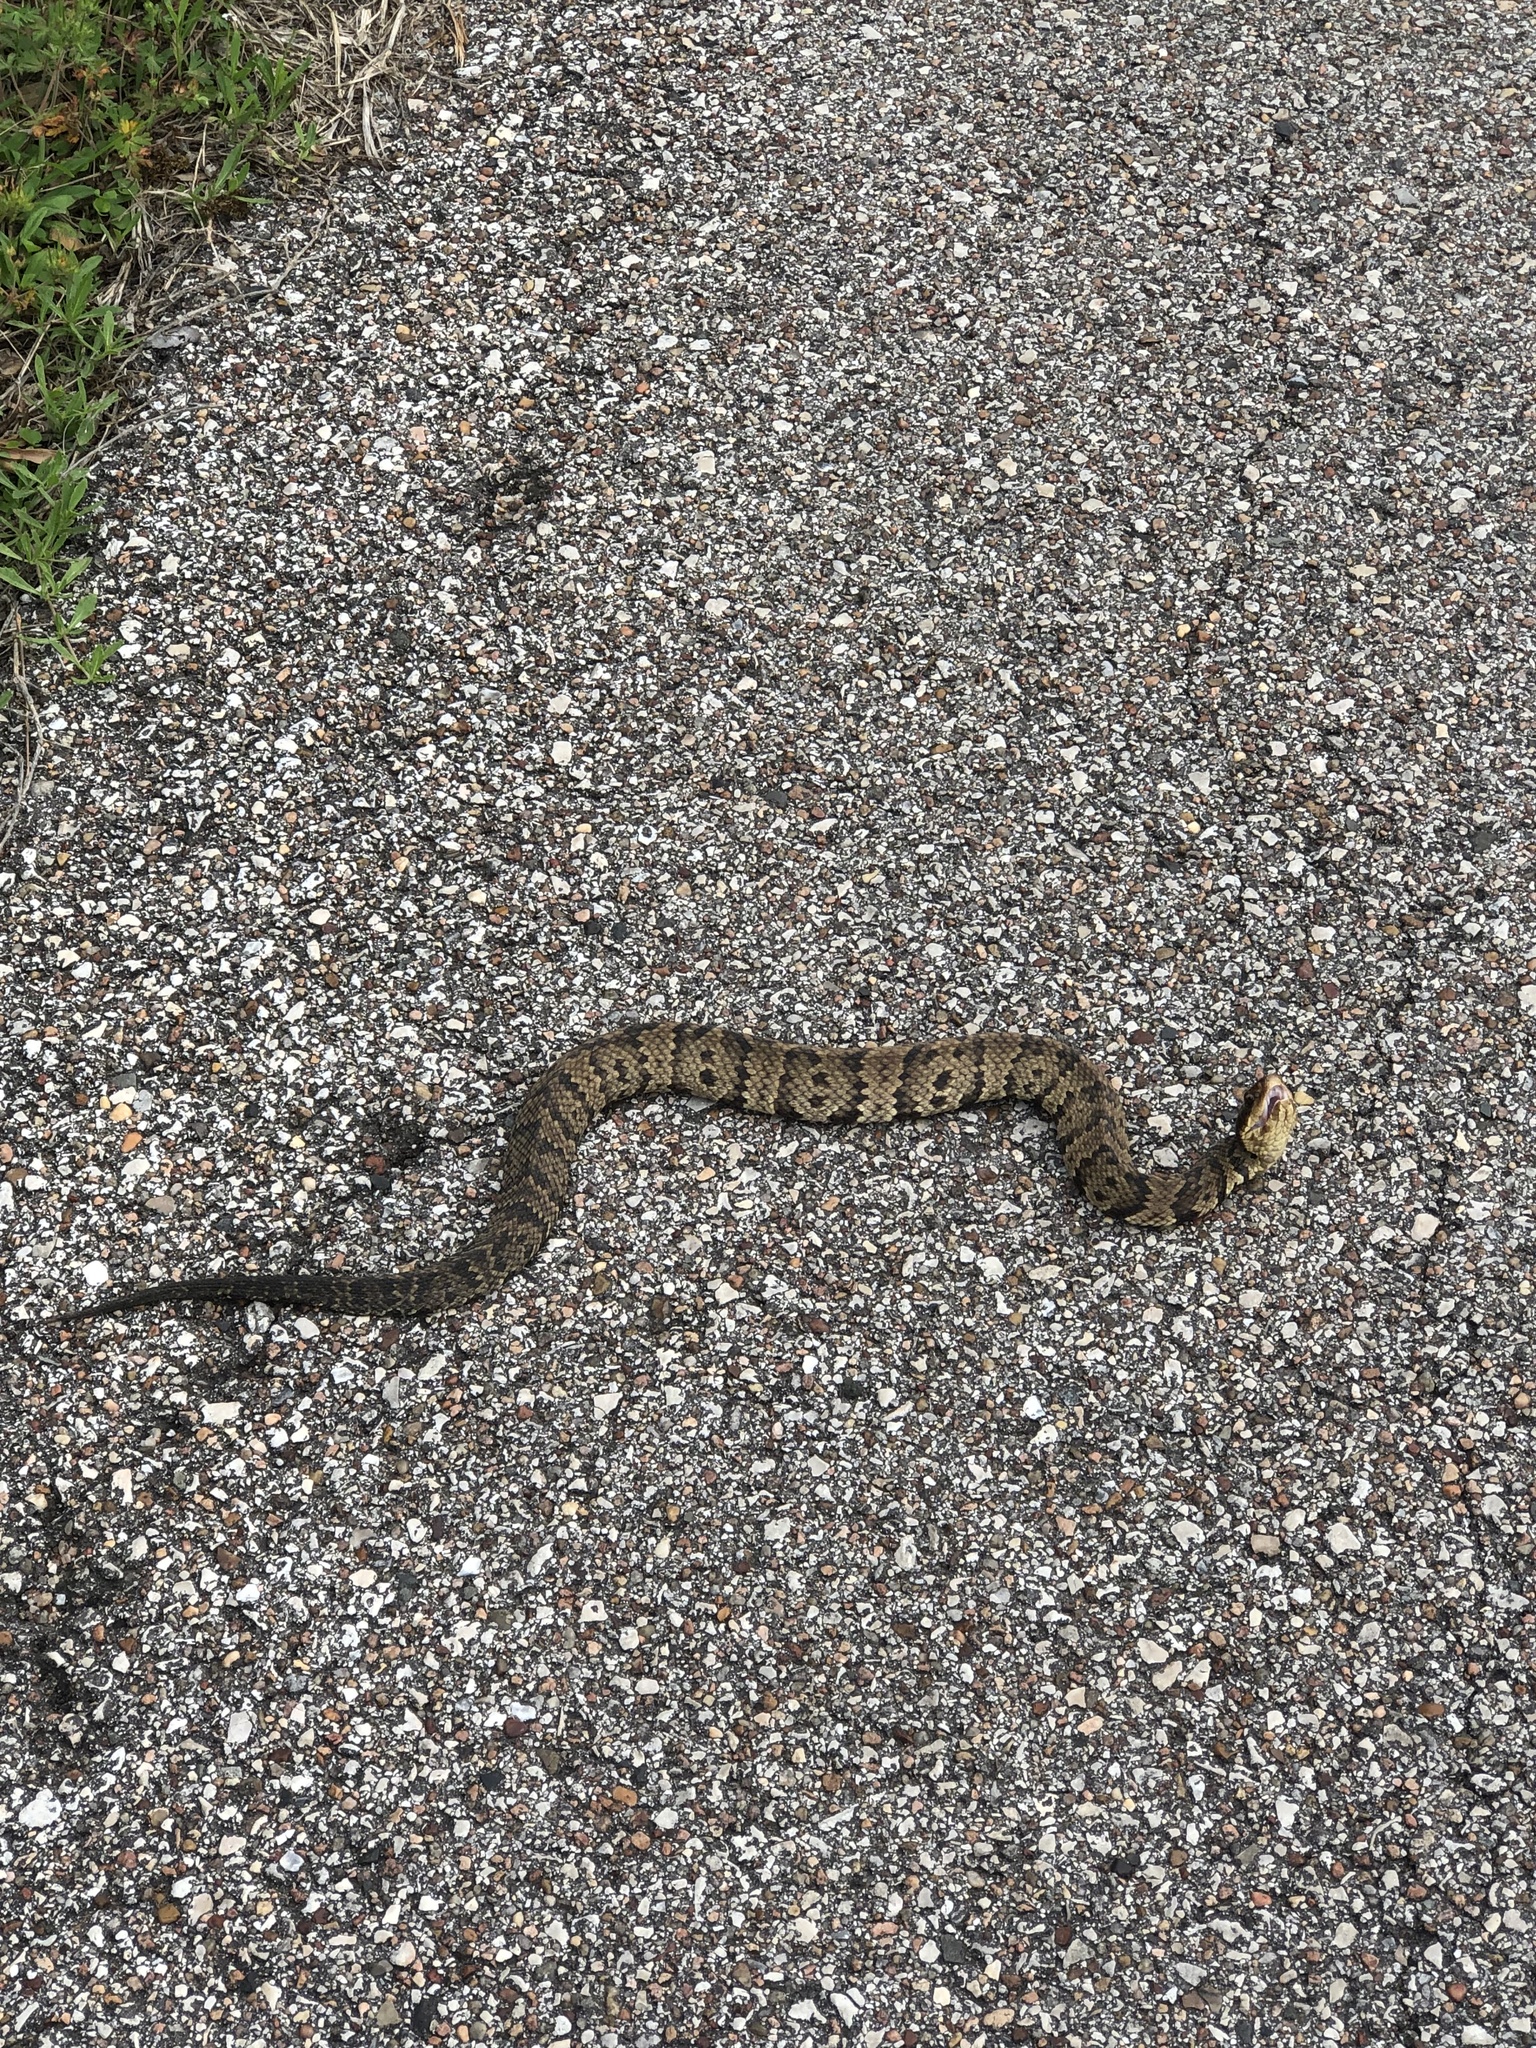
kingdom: Animalia
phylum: Chordata
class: Squamata
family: Viperidae
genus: Agkistrodon
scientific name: Agkistrodon piscivorus
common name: Cottonmouth
